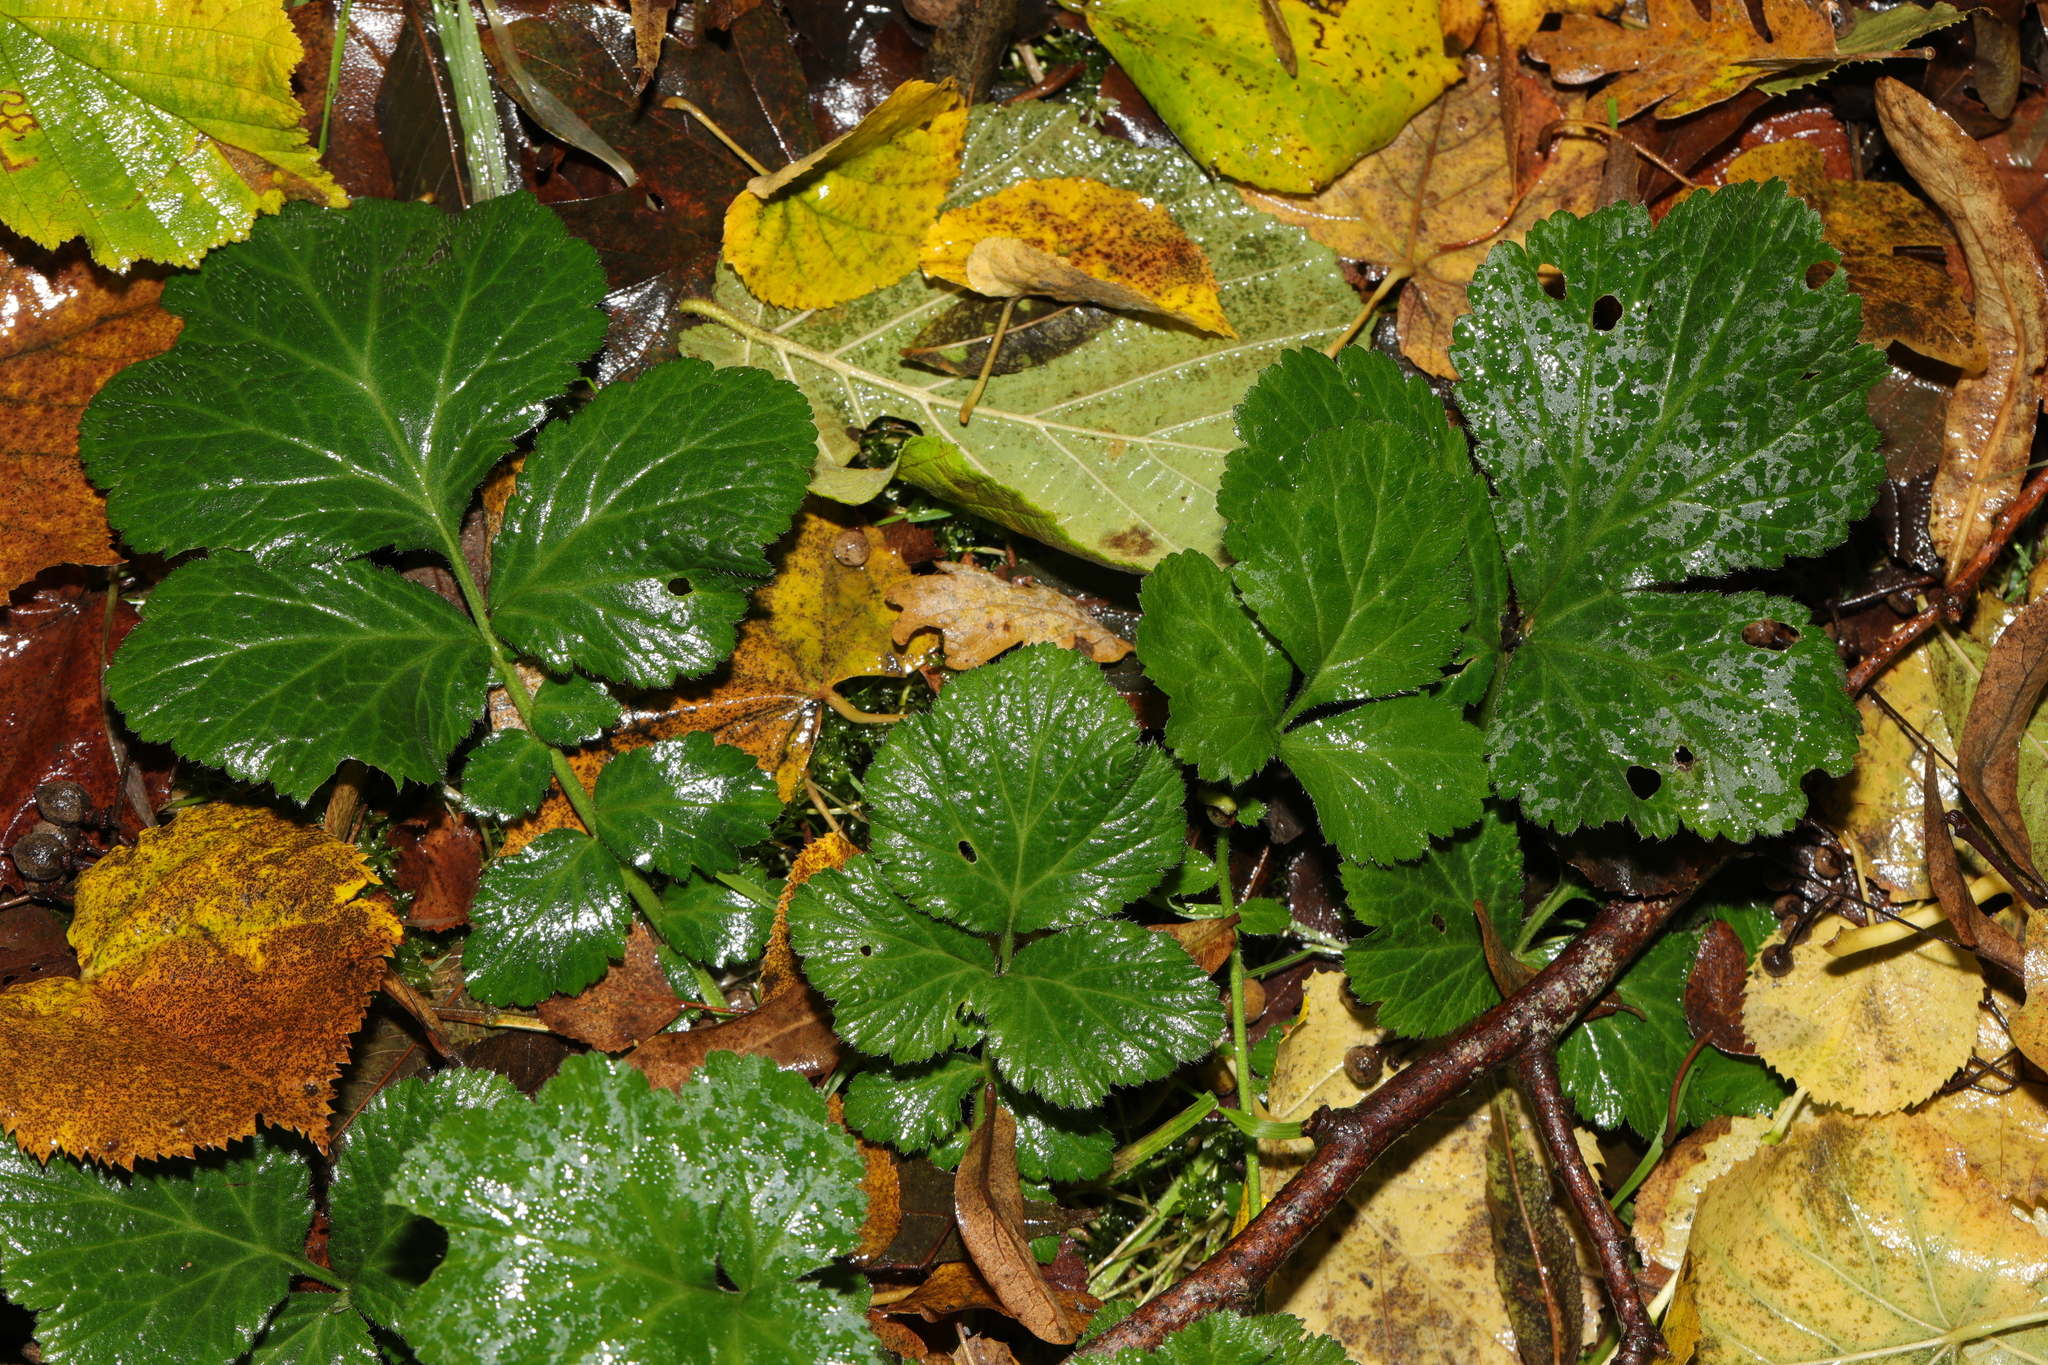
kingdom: Plantae
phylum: Tracheophyta
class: Magnoliopsida
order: Rosales
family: Rosaceae
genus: Geum
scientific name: Geum urbanum
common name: Wood avens
